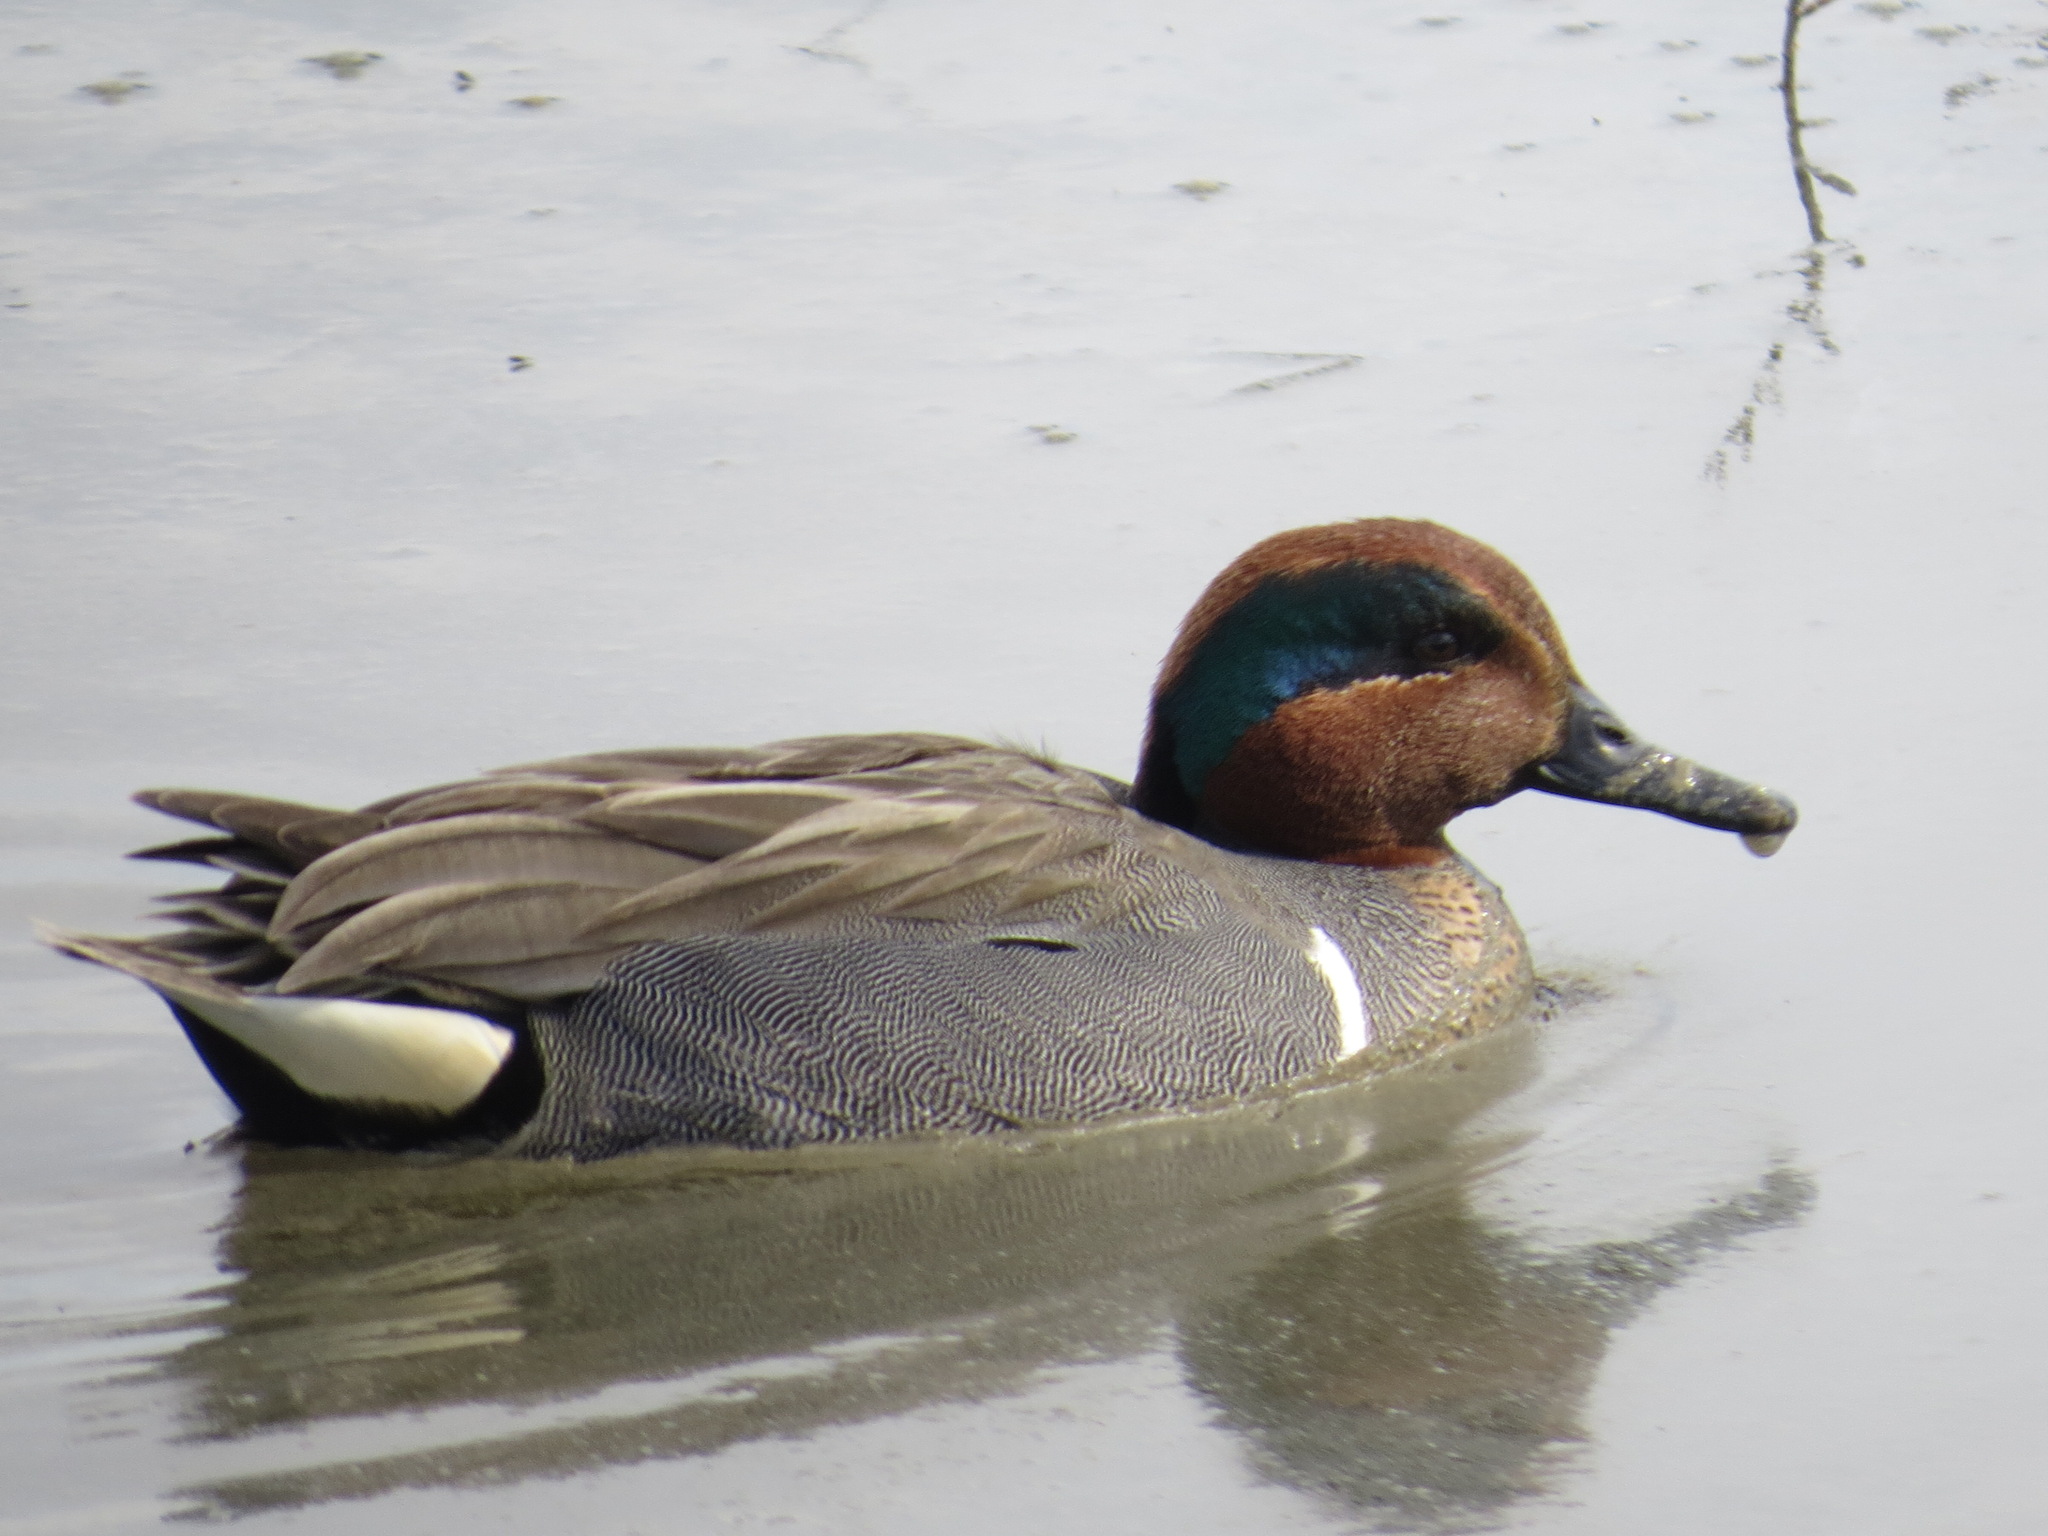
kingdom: Animalia
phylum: Chordata
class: Aves
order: Anseriformes
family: Anatidae
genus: Anas
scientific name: Anas crecca
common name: Eurasian teal
